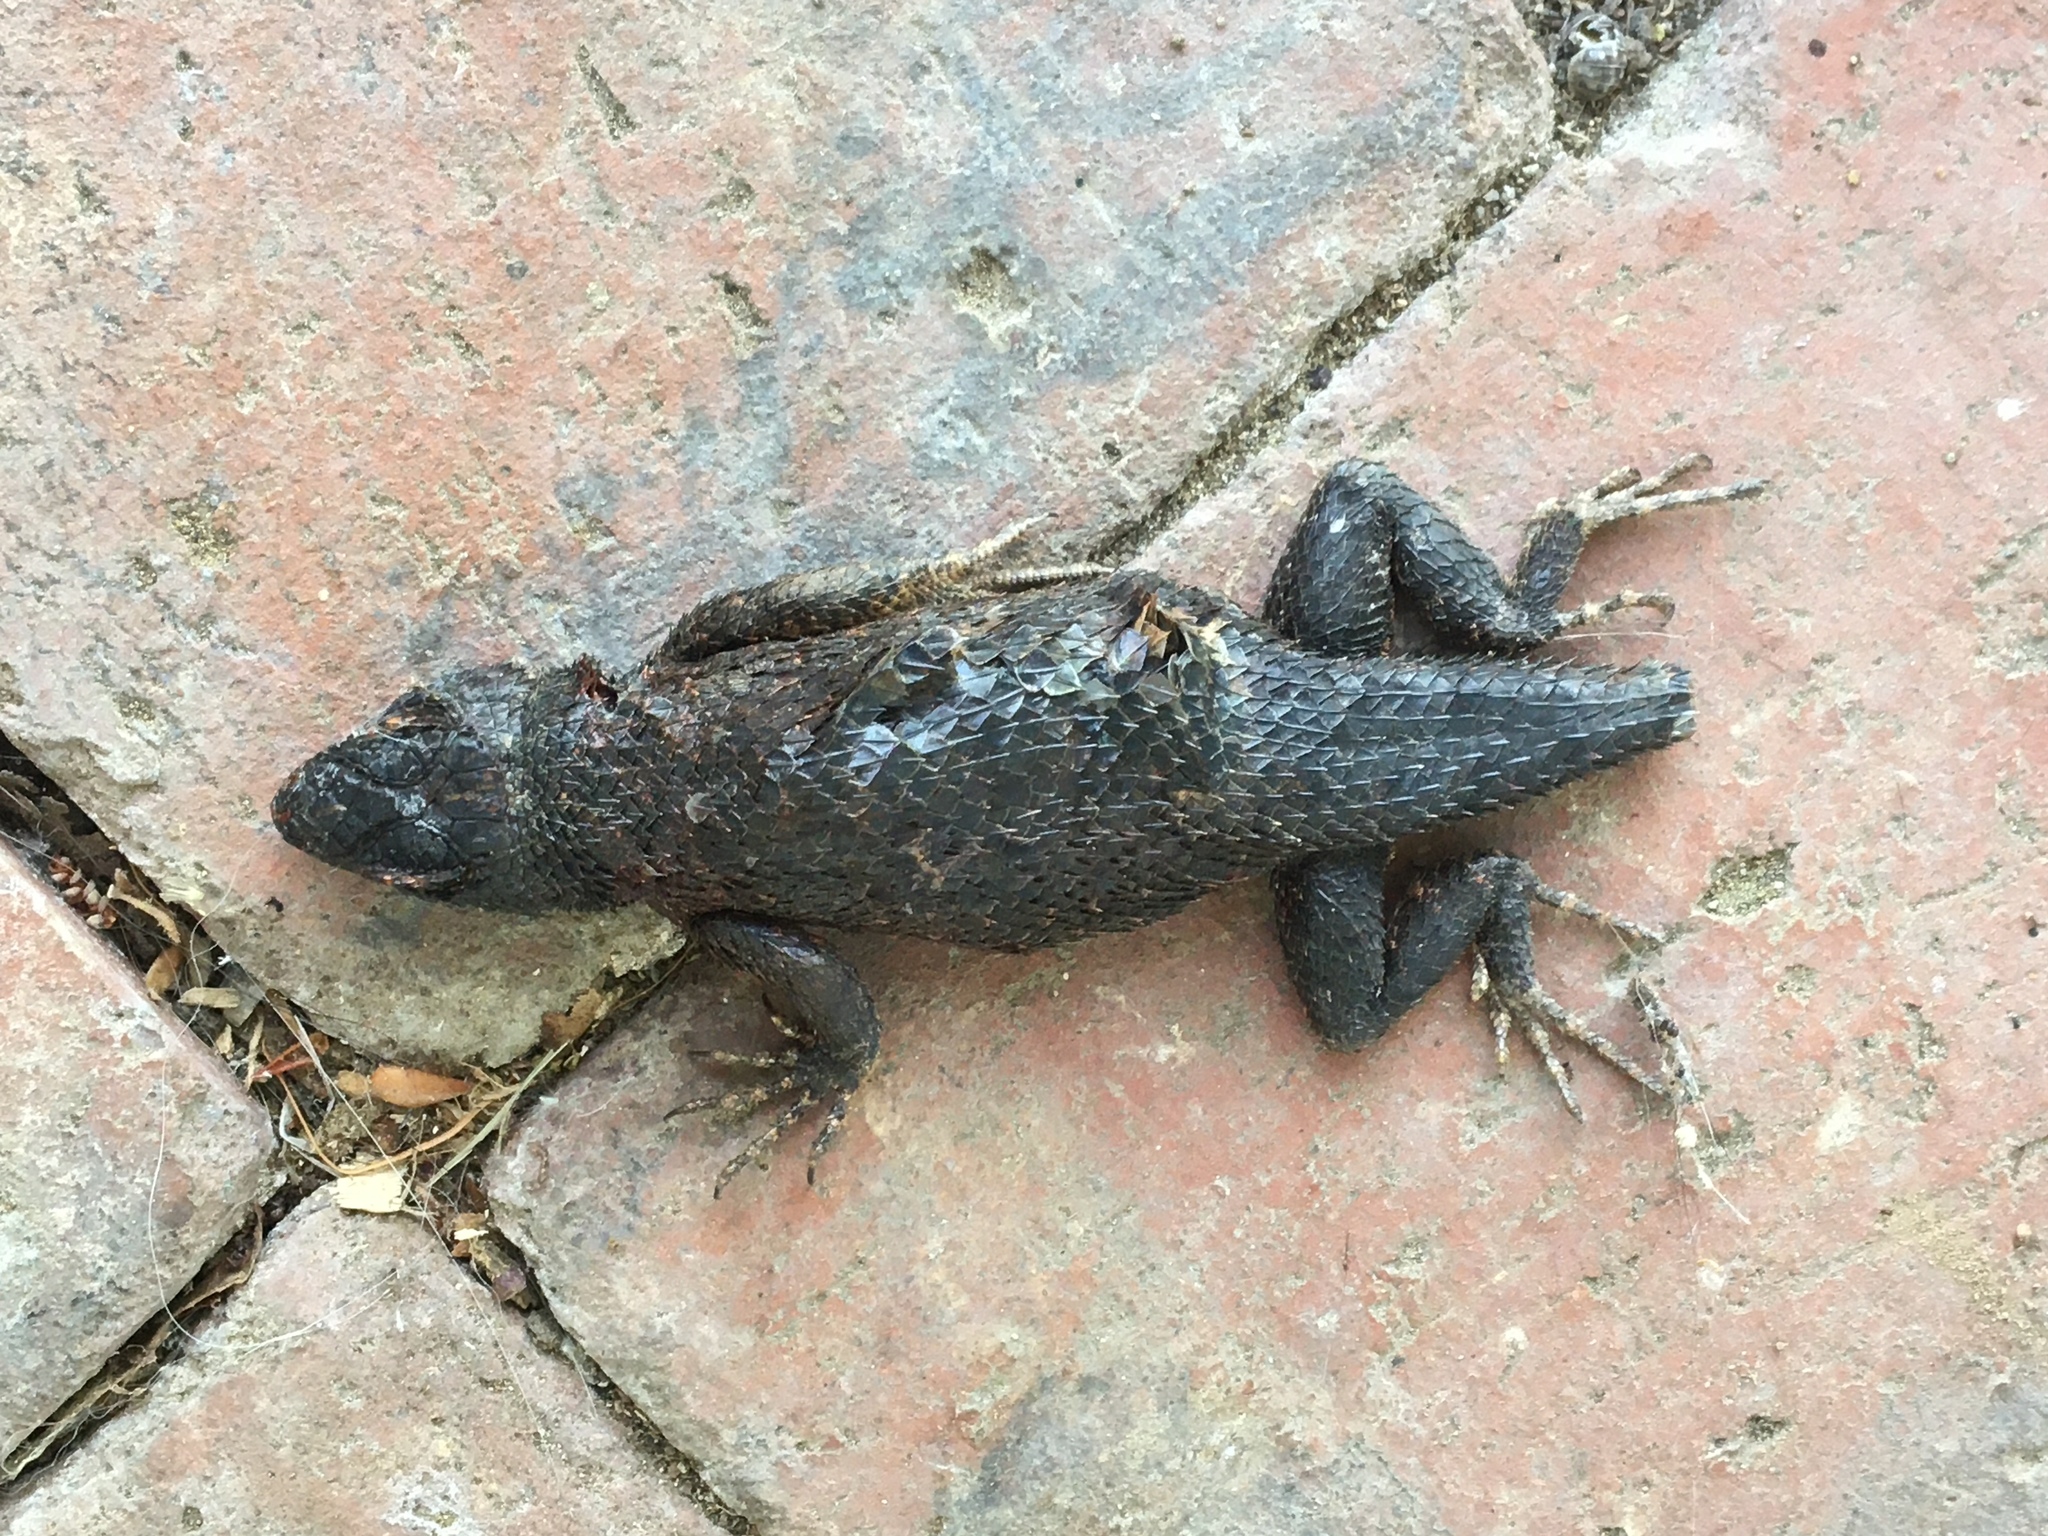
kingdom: Animalia
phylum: Chordata
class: Squamata
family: Phrynosomatidae
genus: Sceloporus
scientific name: Sceloporus occidentalis
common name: Western fence lizard
